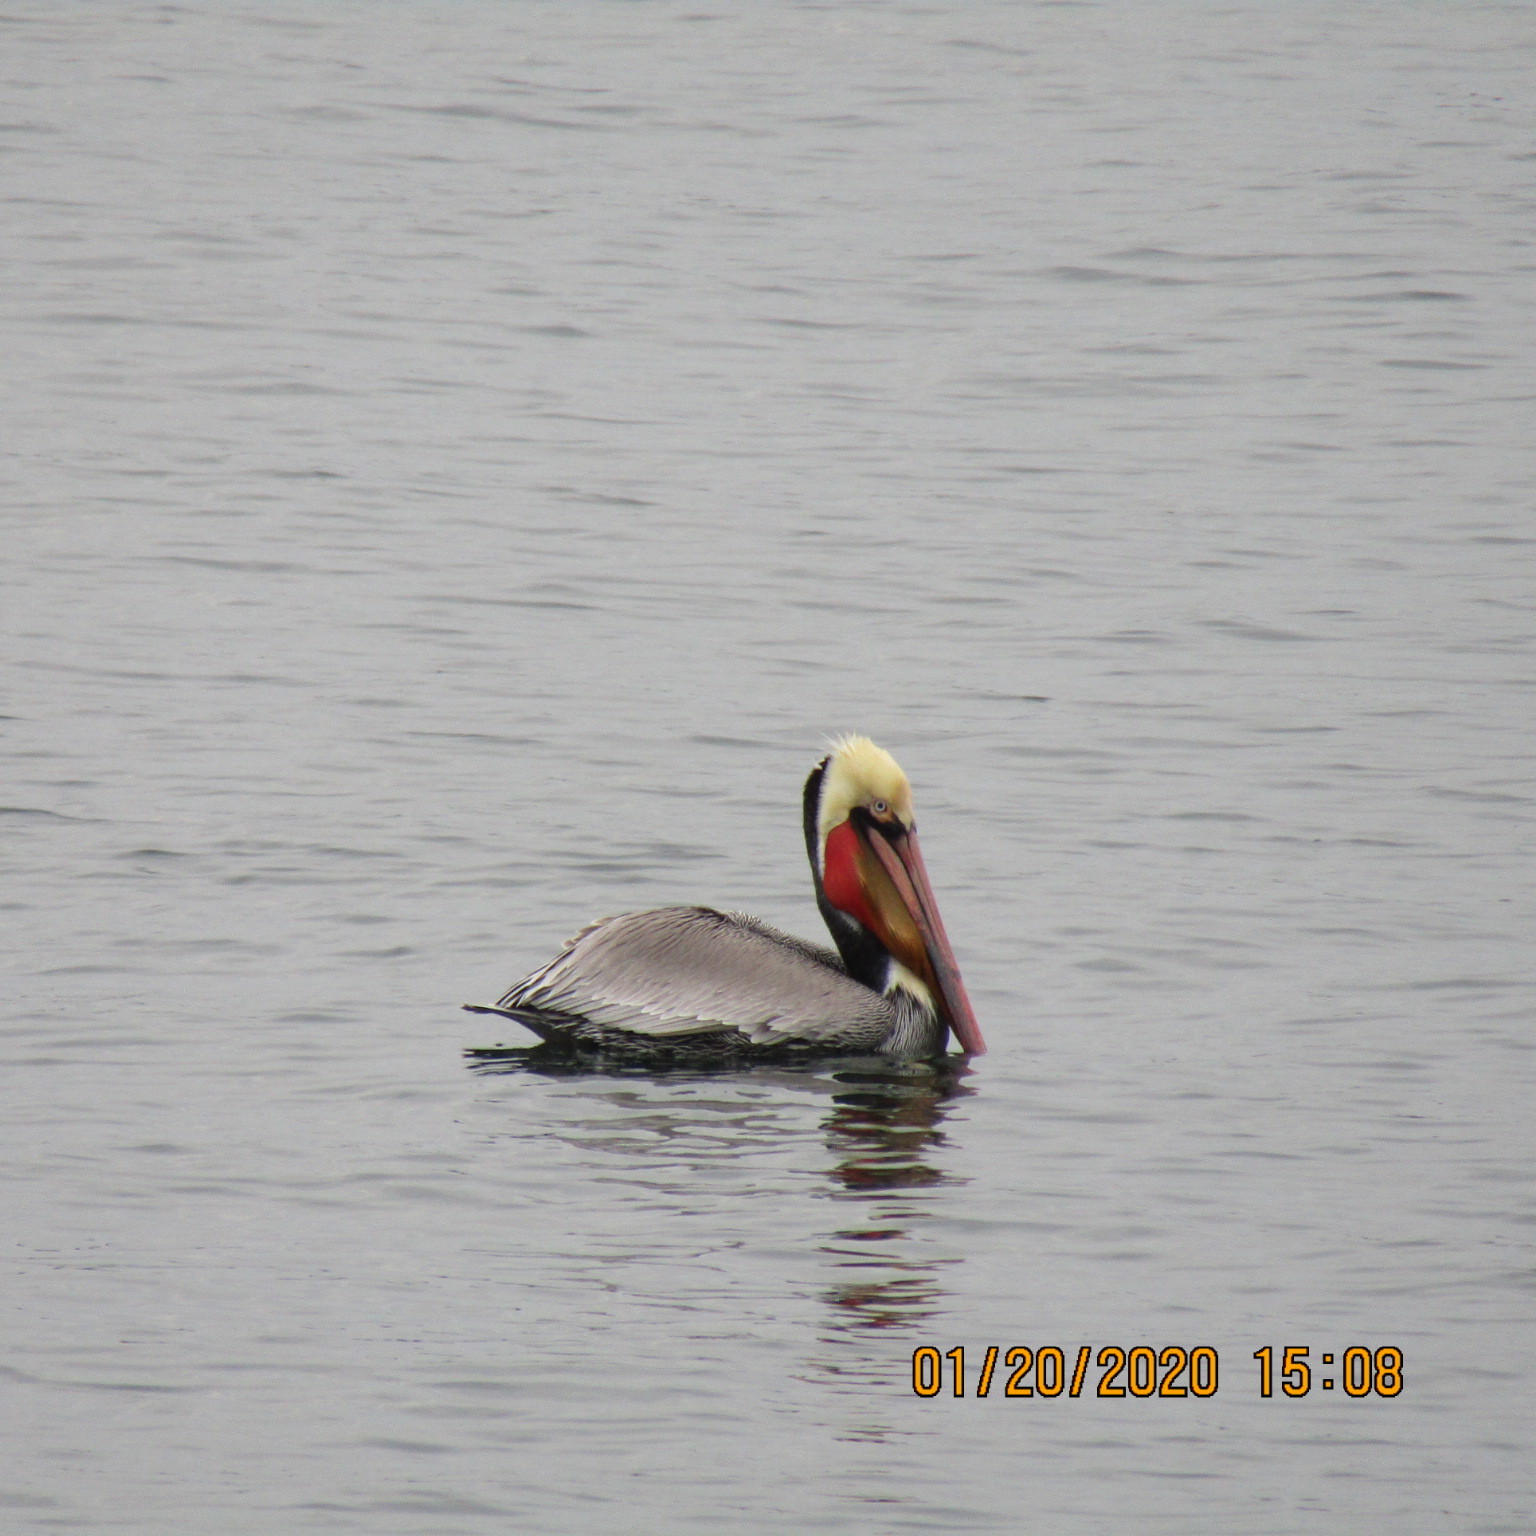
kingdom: Animalia
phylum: Chordata
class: Aves
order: Pelecaniformes
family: Pelecanidae
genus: Pelecanus
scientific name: Pelecanus occidentalis
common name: Brown pelican
